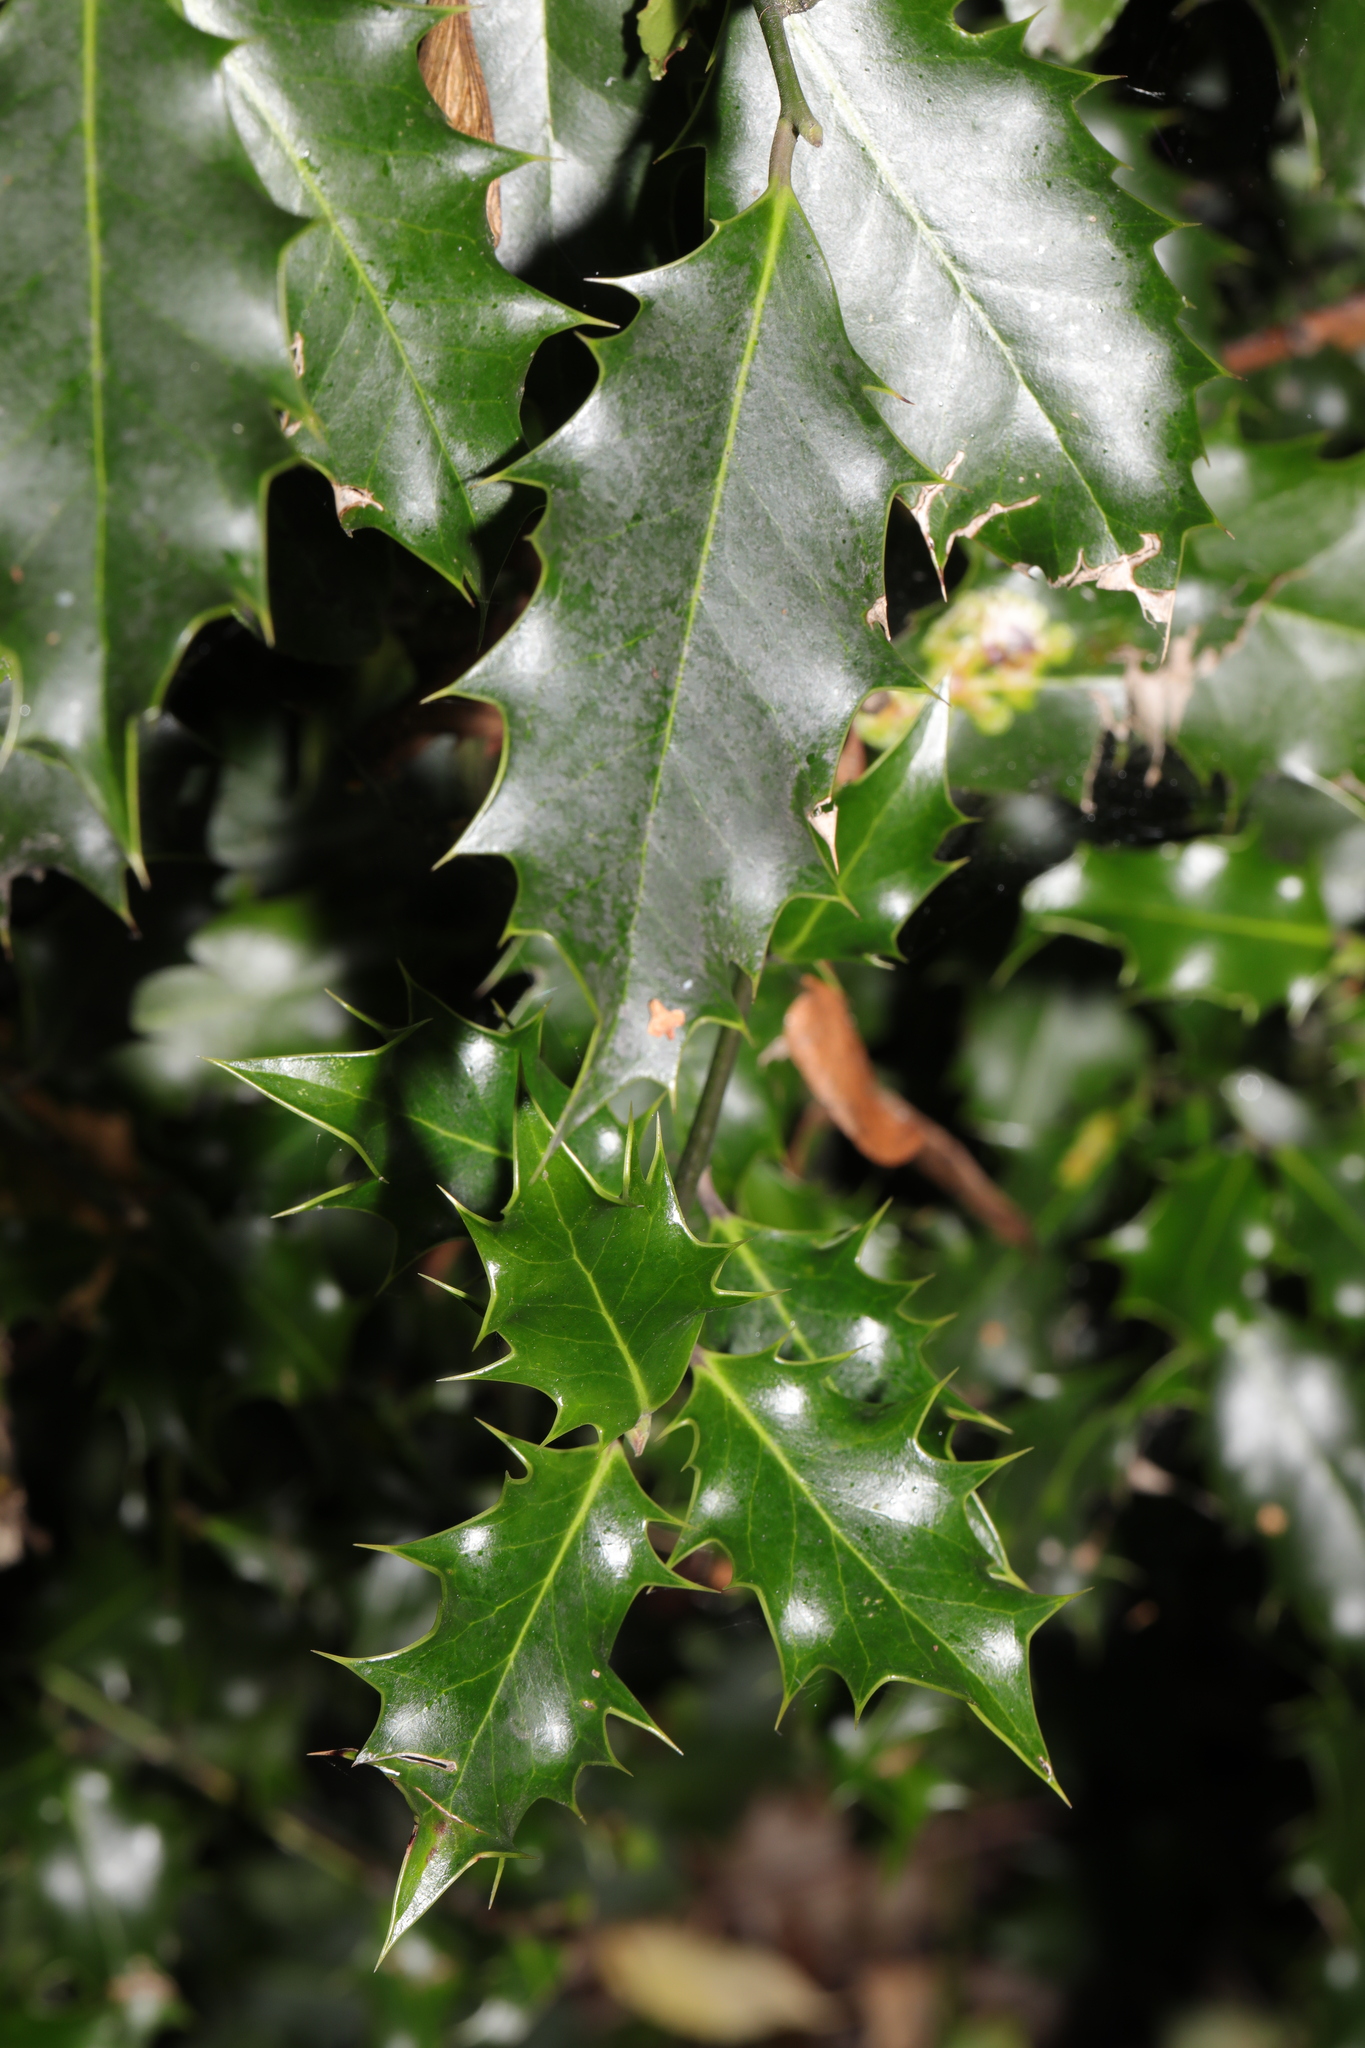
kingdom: Plantae
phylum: Tracheophyta
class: Magnoliopsida
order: Aquifoliales
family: Aquifoliaceae
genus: Ilex
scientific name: Ilex aquifolium
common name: English holly
